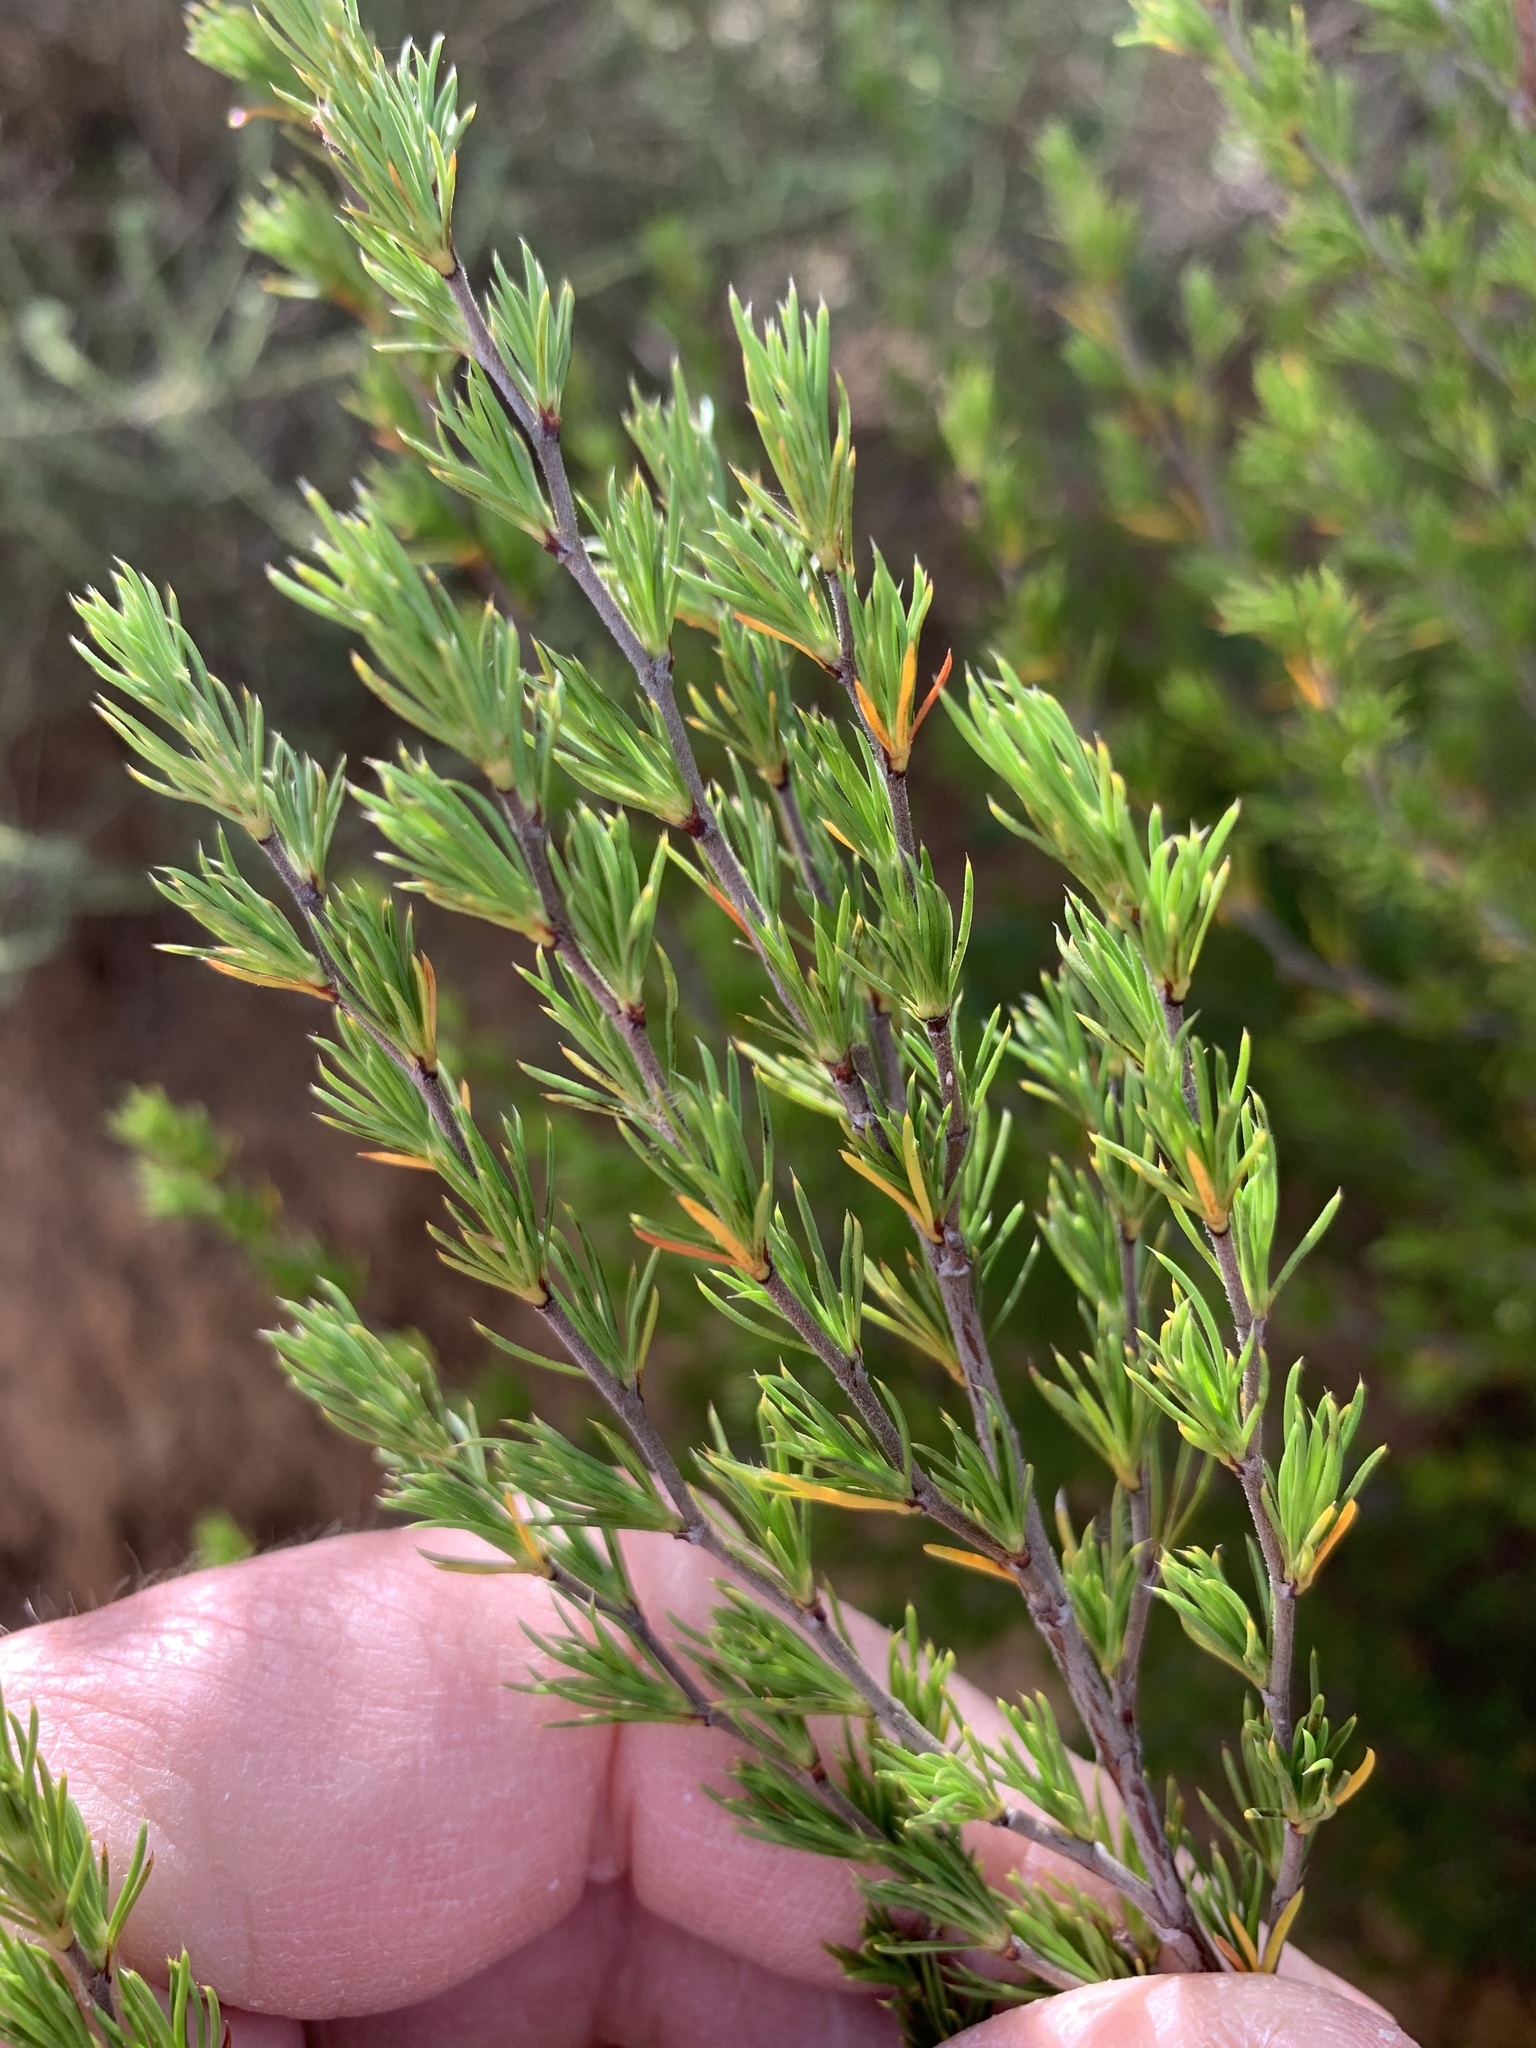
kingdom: Plantae
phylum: Tracheophyta
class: Magnoliopsida
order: Rosales
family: Rosaceae
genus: Cliffortia
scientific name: Cliffortia atrata
